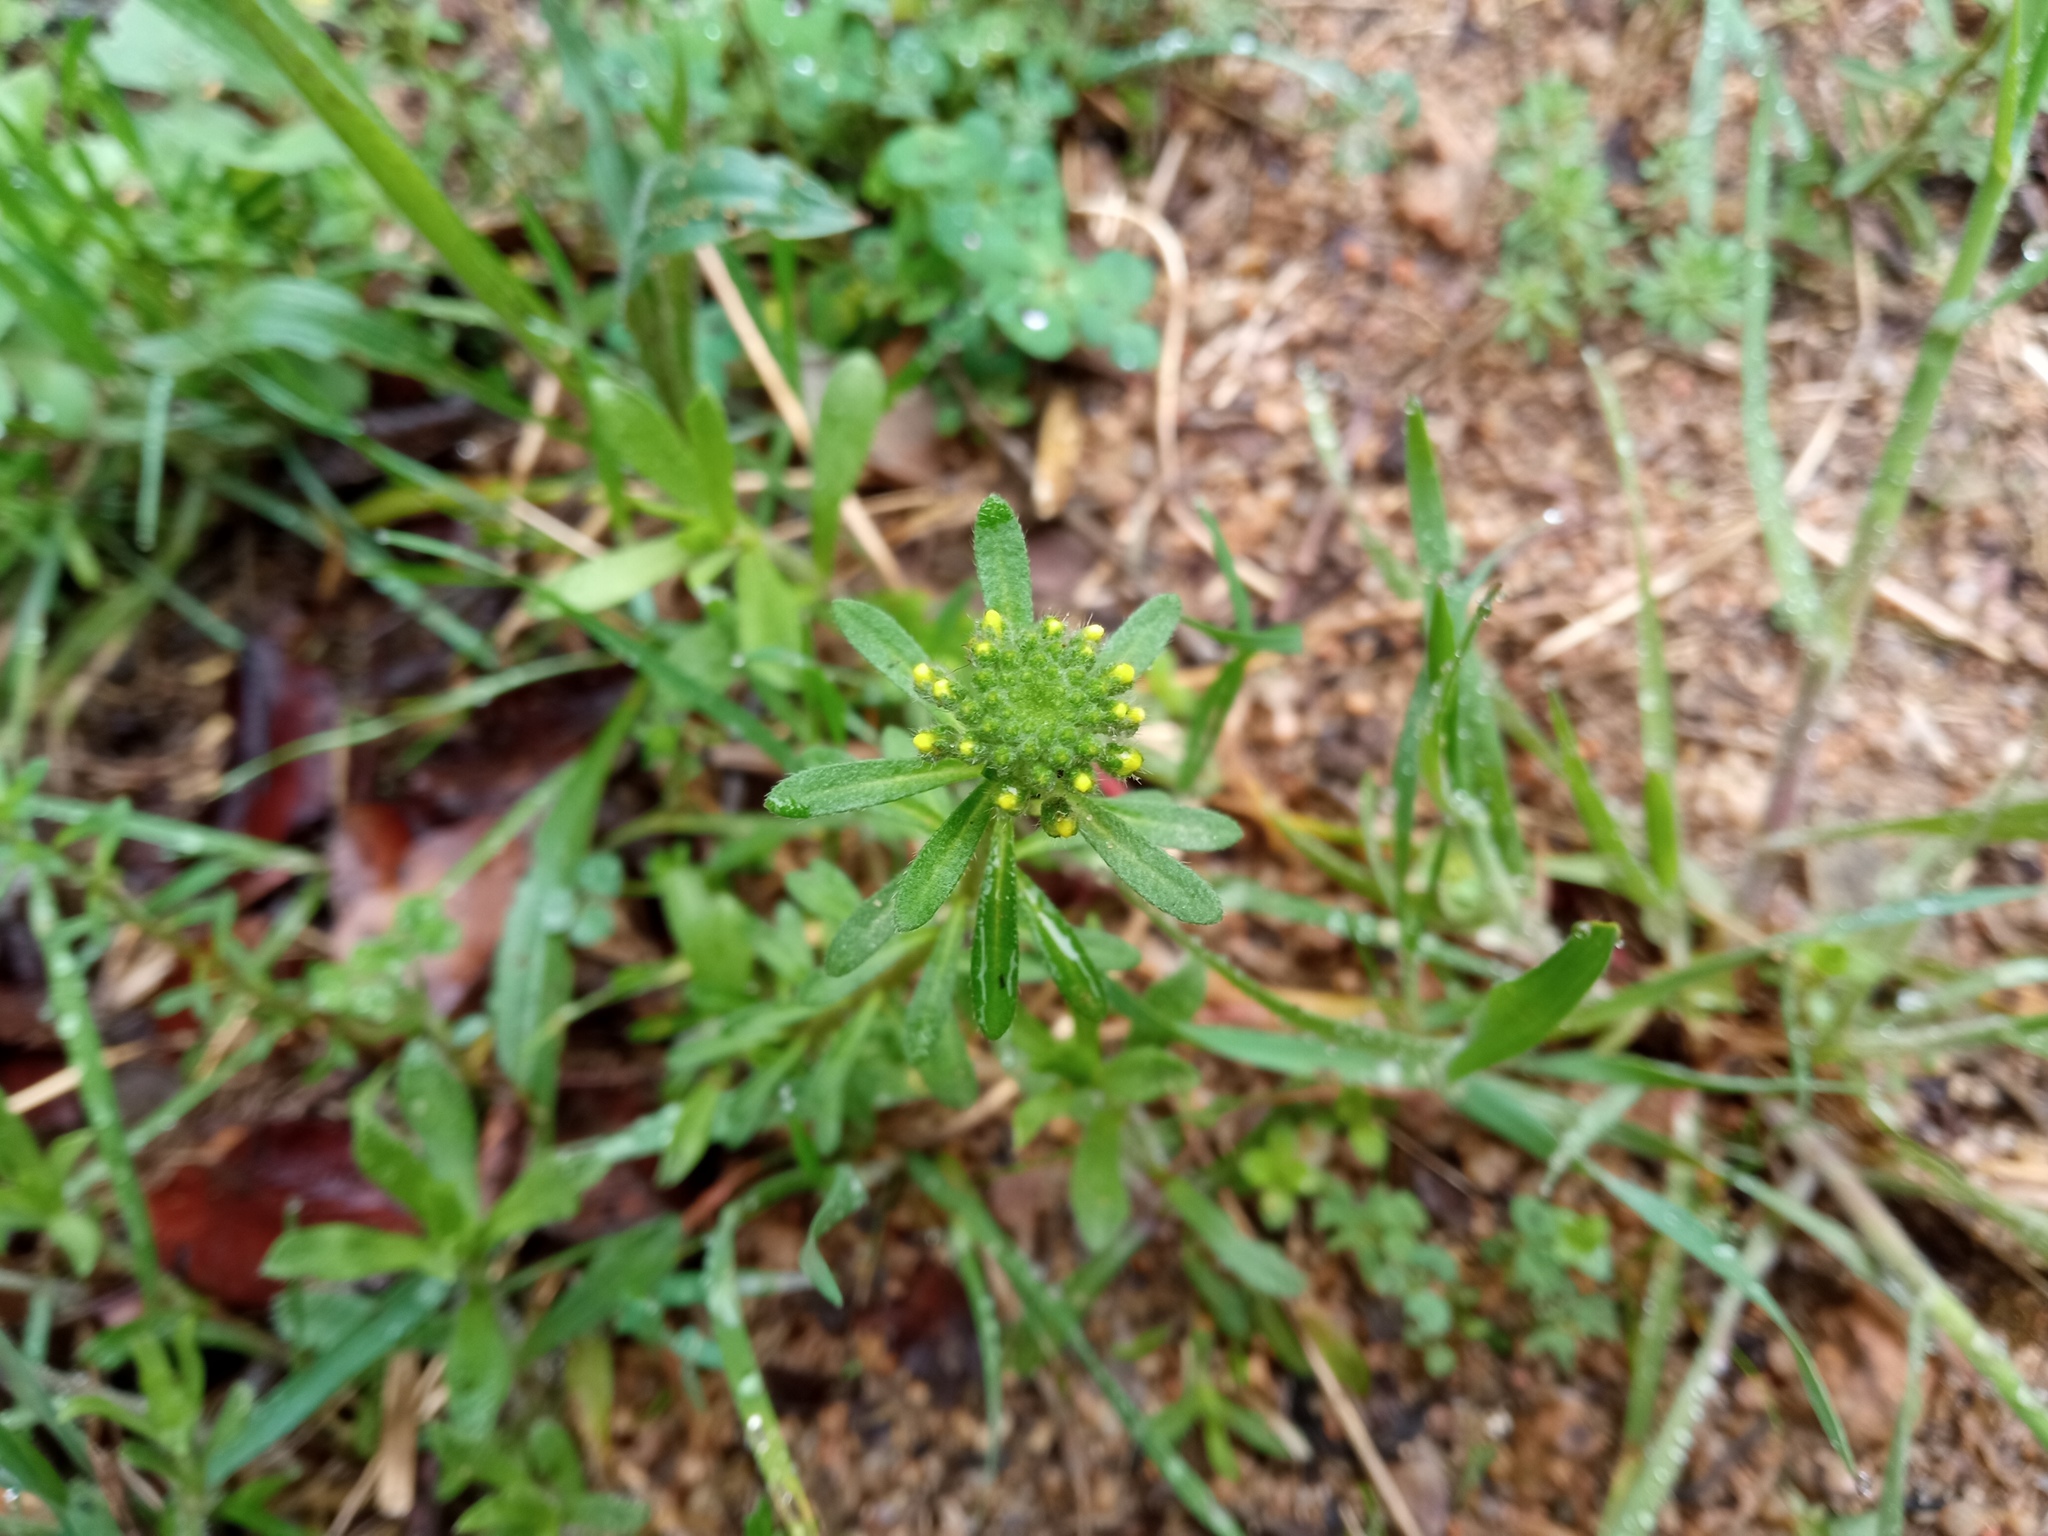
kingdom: Plantae
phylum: Tracheophyta
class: Magnoliopsida
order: Brassicales
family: Brassicaceae
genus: Alyssum
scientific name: Alyssum alyssoides
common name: Small alison
